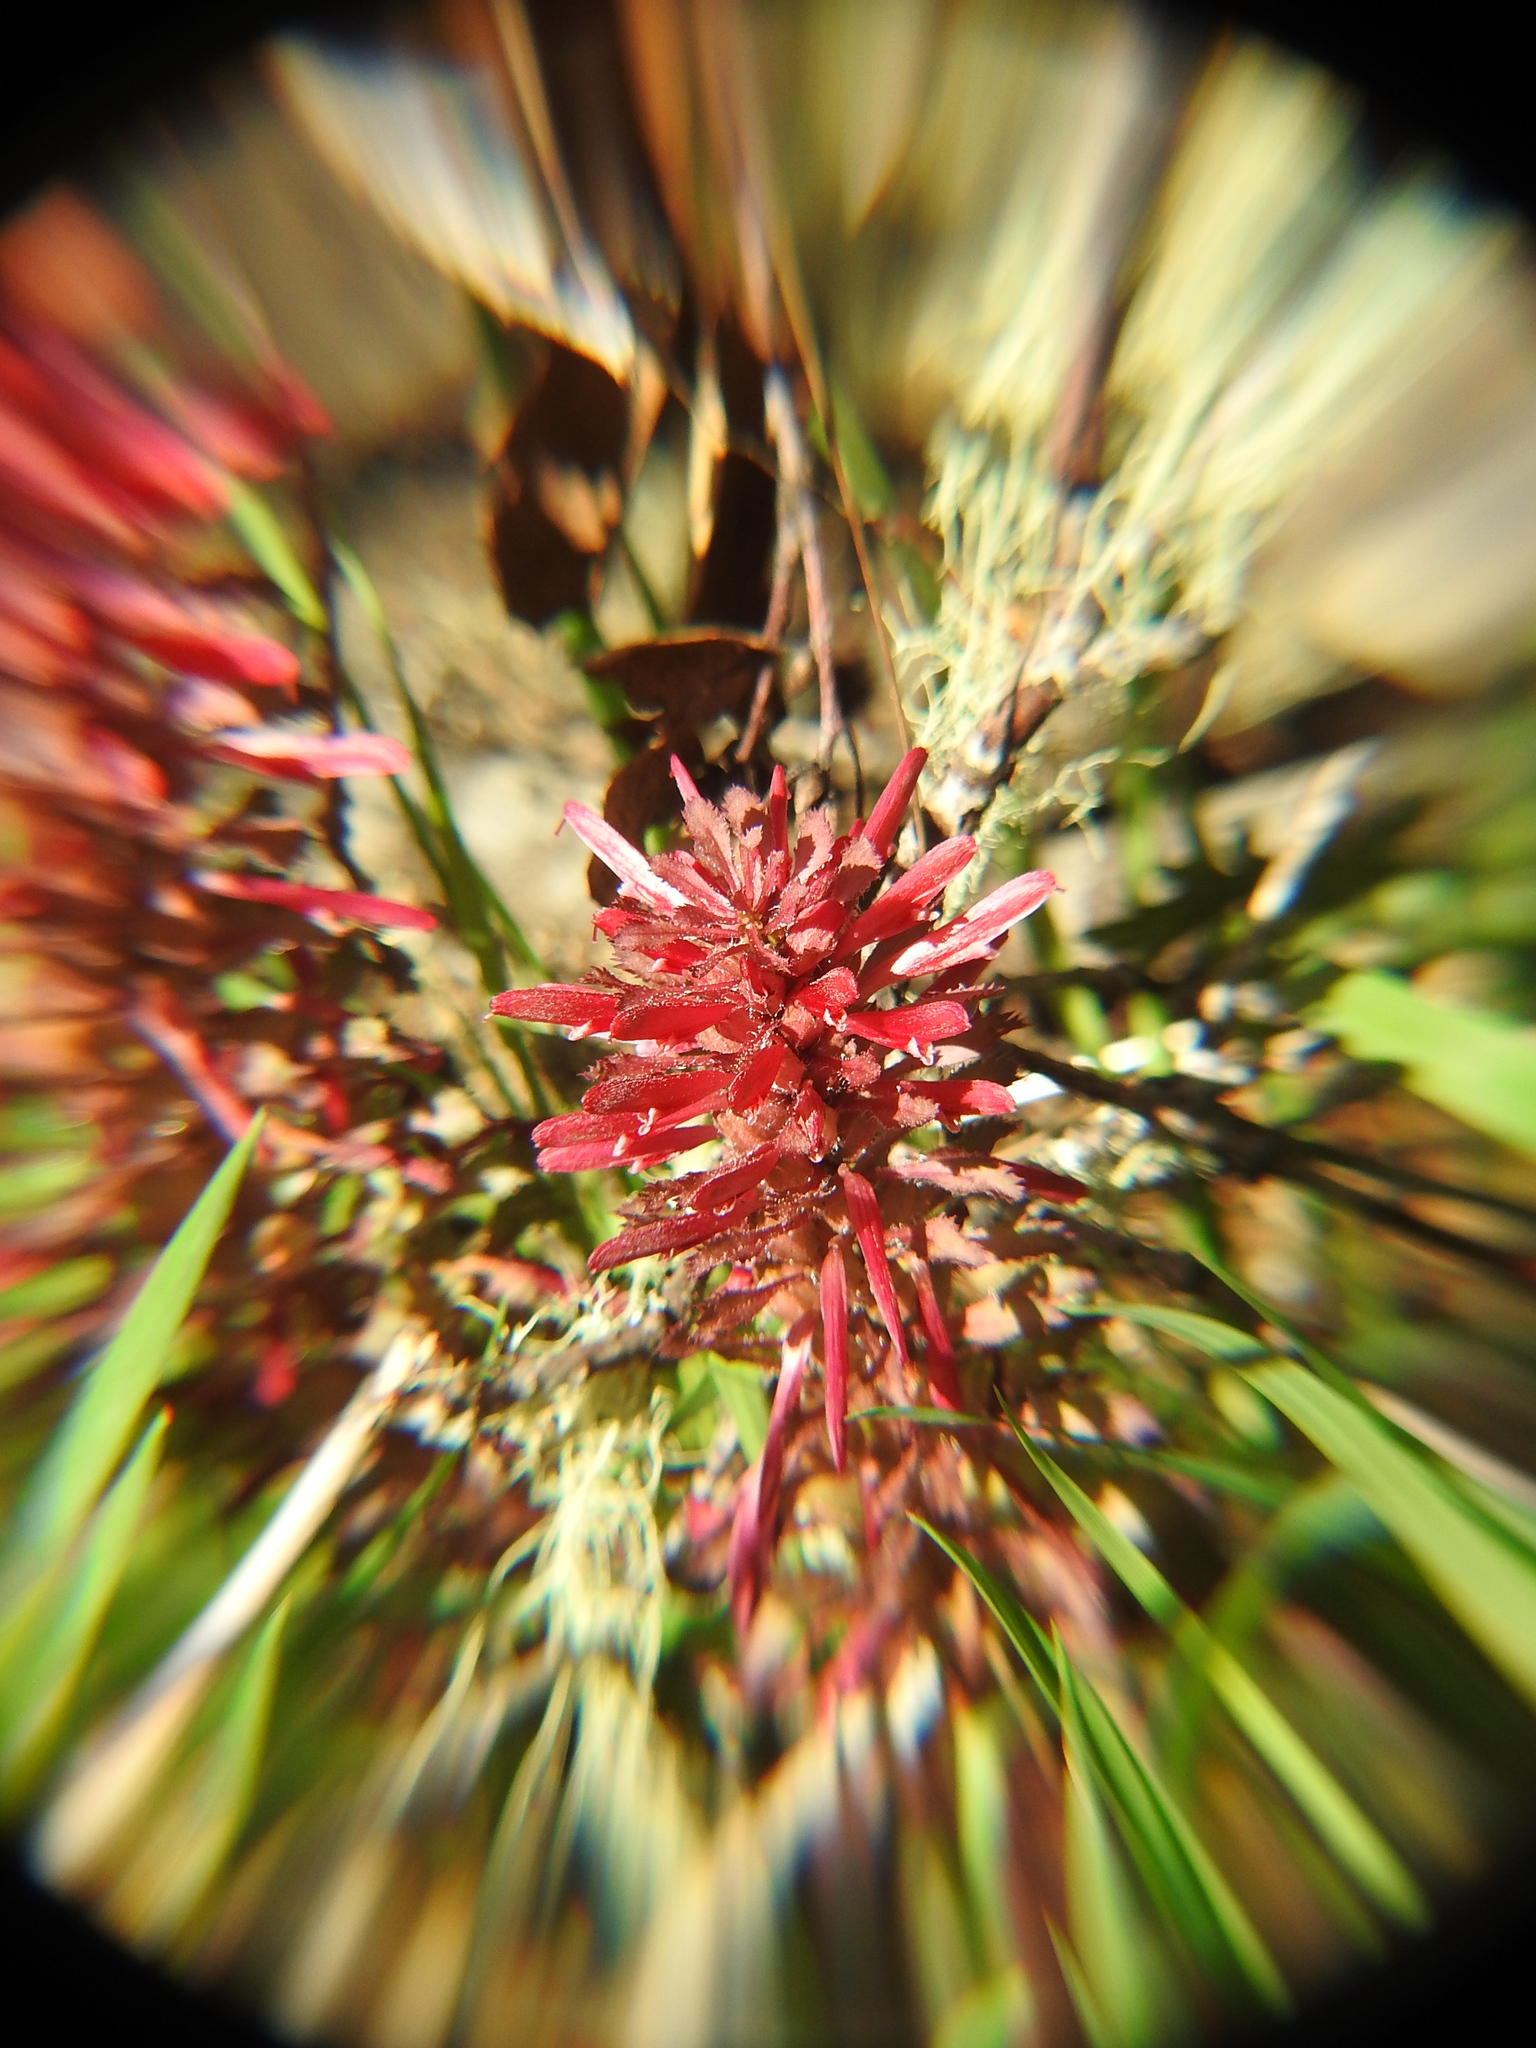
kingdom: Plantae
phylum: Tracheophyta
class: Magnoliopsida
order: Lamiales
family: Orobanchaceae
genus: Pedicularis
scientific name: Pedicularis densiflora
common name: Indian warrior
